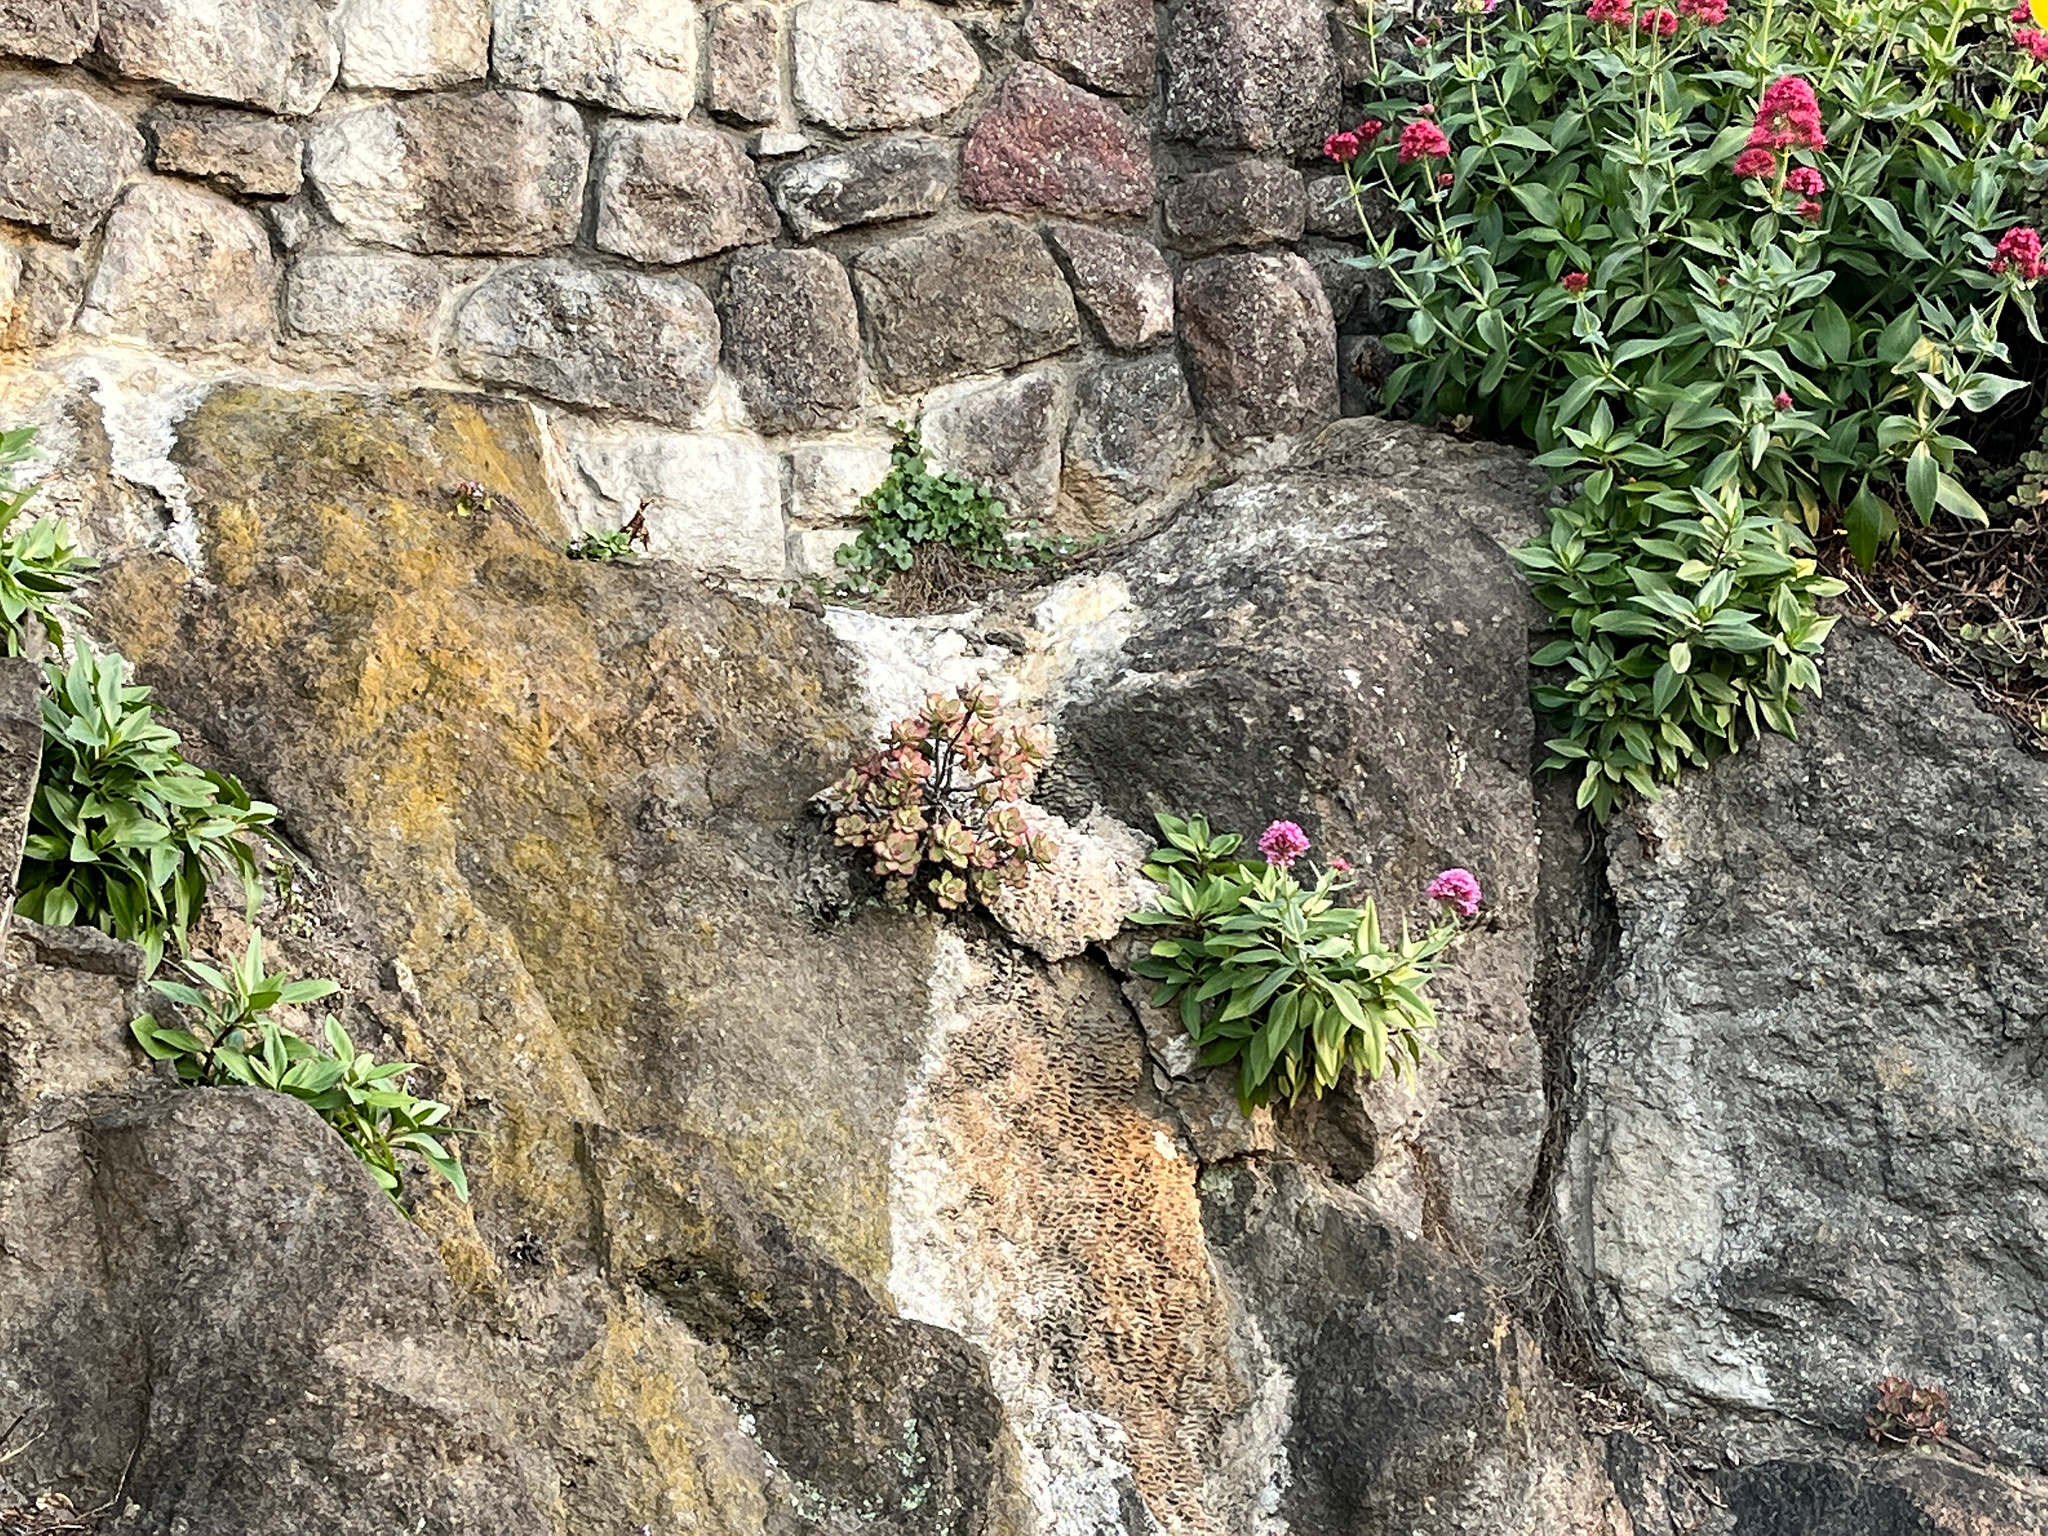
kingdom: Plantae
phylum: Tracheophyta
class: Magnoliopsida
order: Saxifragales
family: Crassulaceae
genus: Aeonium
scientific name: Aeonium haworthii
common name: Haworth's aeonium
